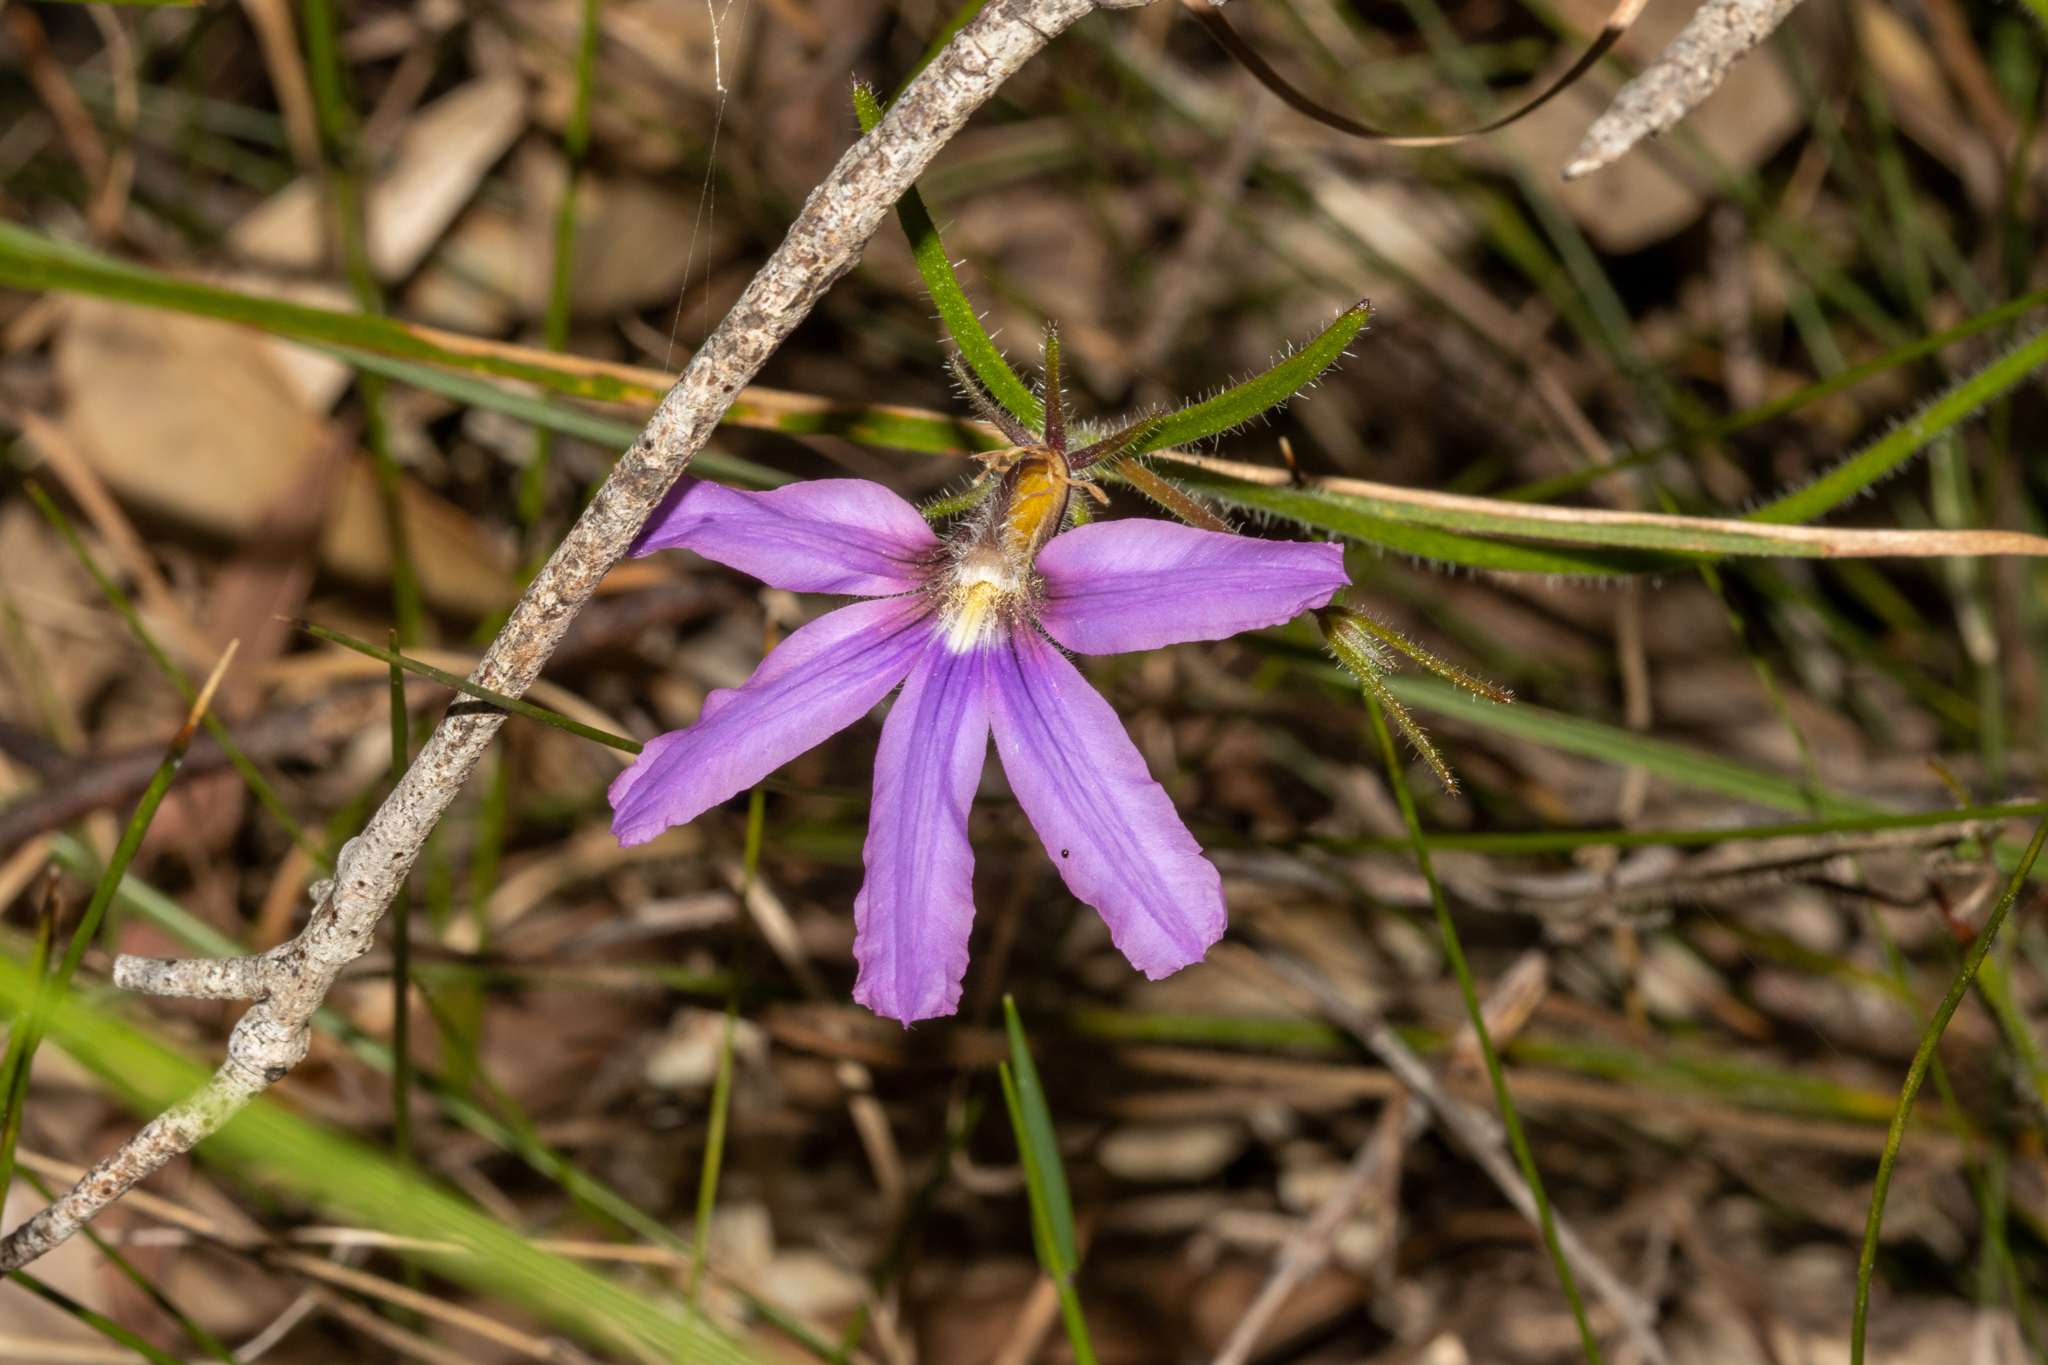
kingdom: Plantae
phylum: Tracheophyta
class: Magnoliopsida
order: Asterales
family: Goodeniaceae
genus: Scaevola
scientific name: Scaevola ramosissima
